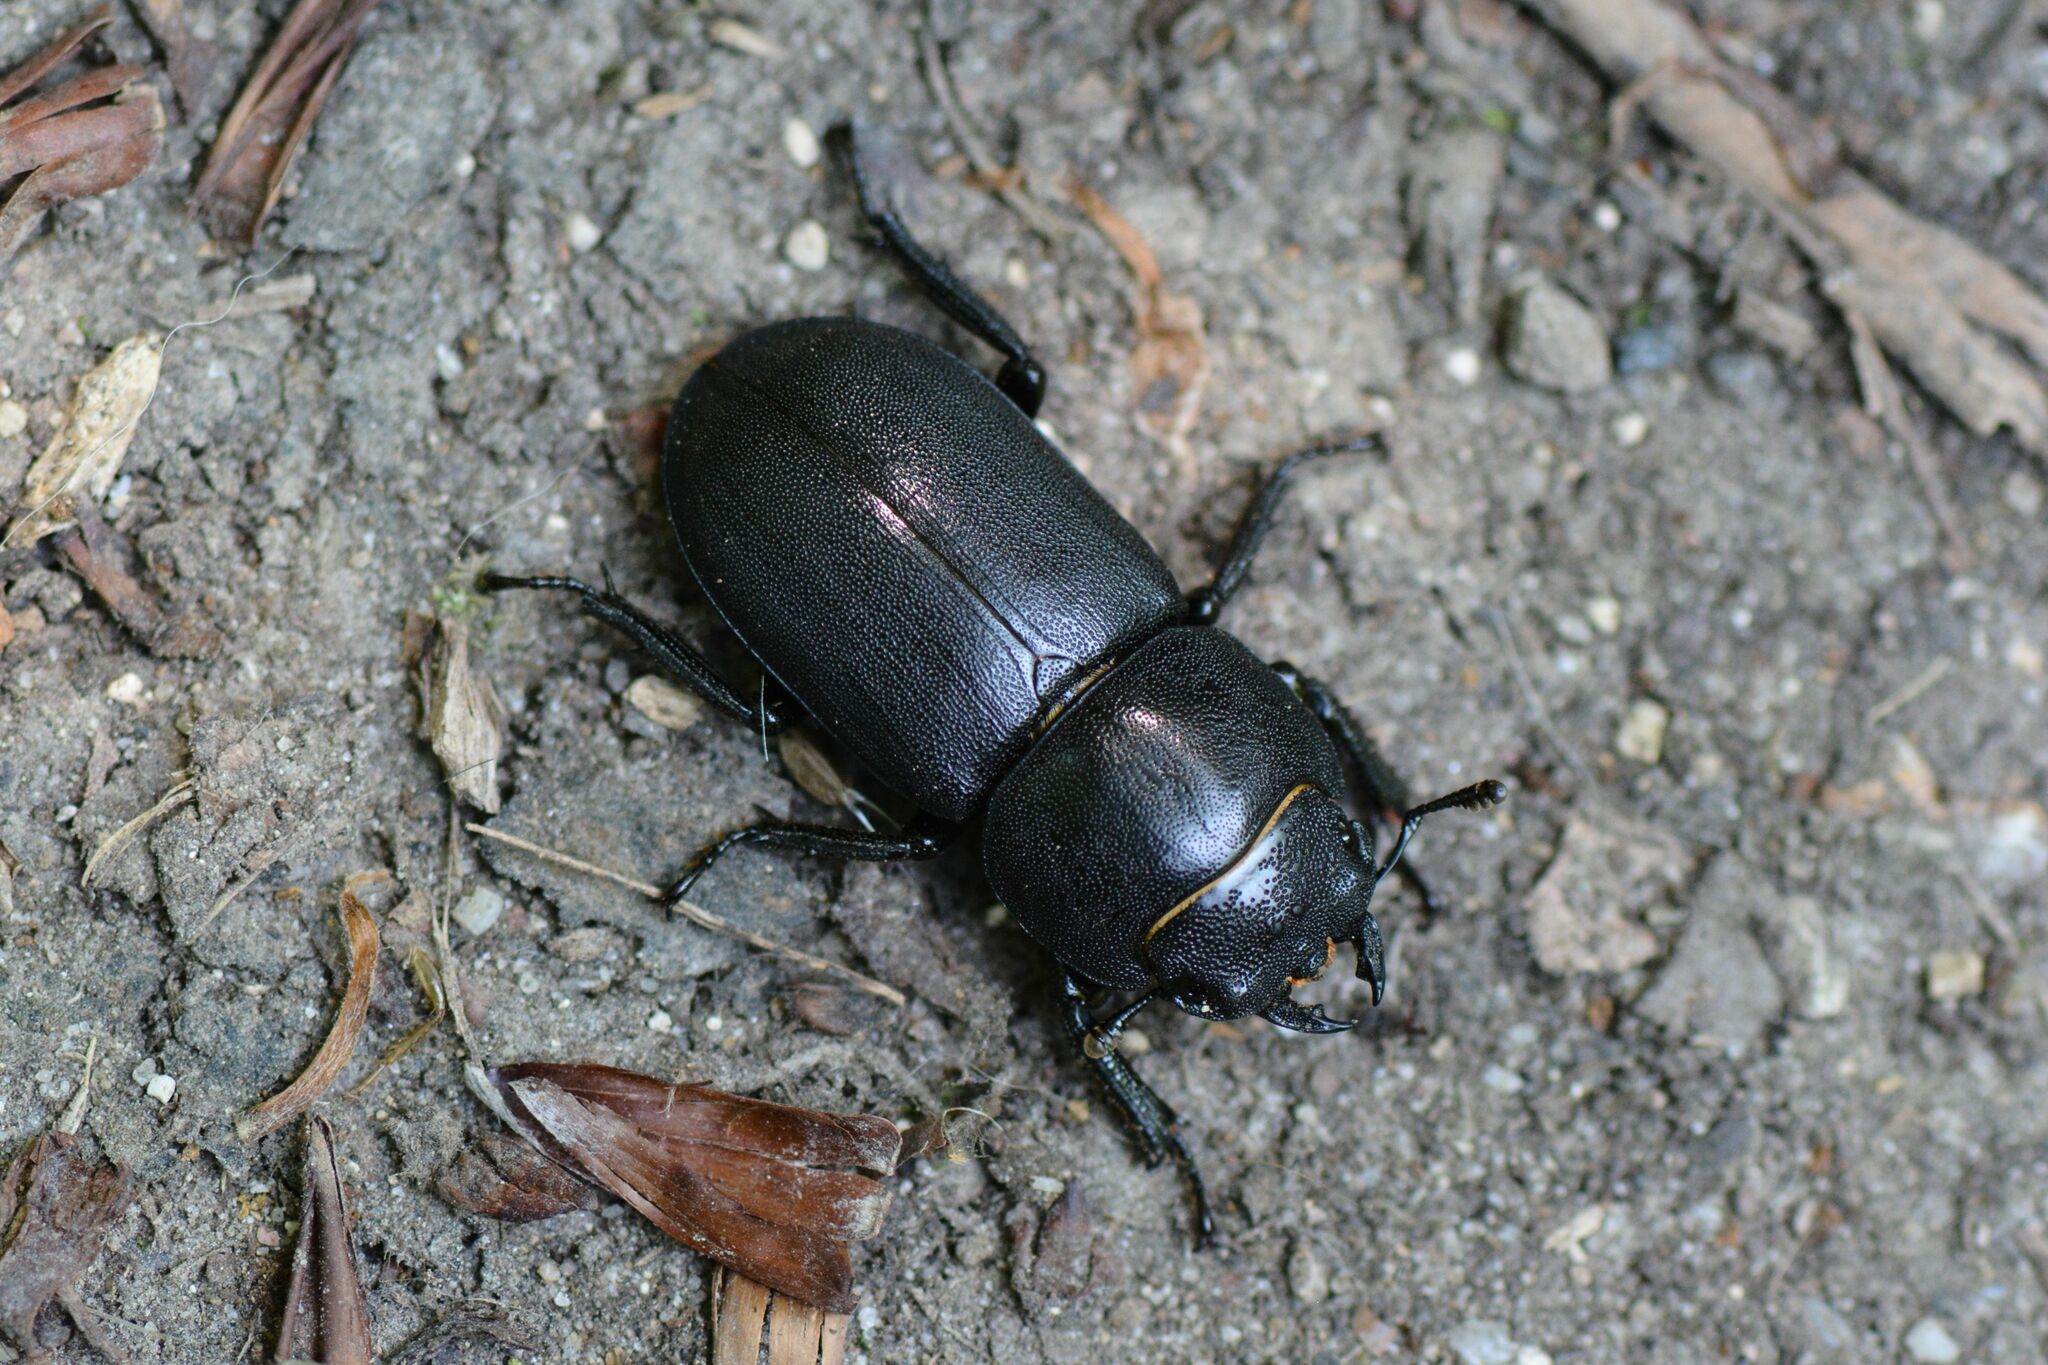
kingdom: Animalia
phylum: Arthropoda
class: Insecta
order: Coleoptera
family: Lucanidae
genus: Dorcus
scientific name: Dorcus parallelipipedus
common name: Lesser stag beetle
